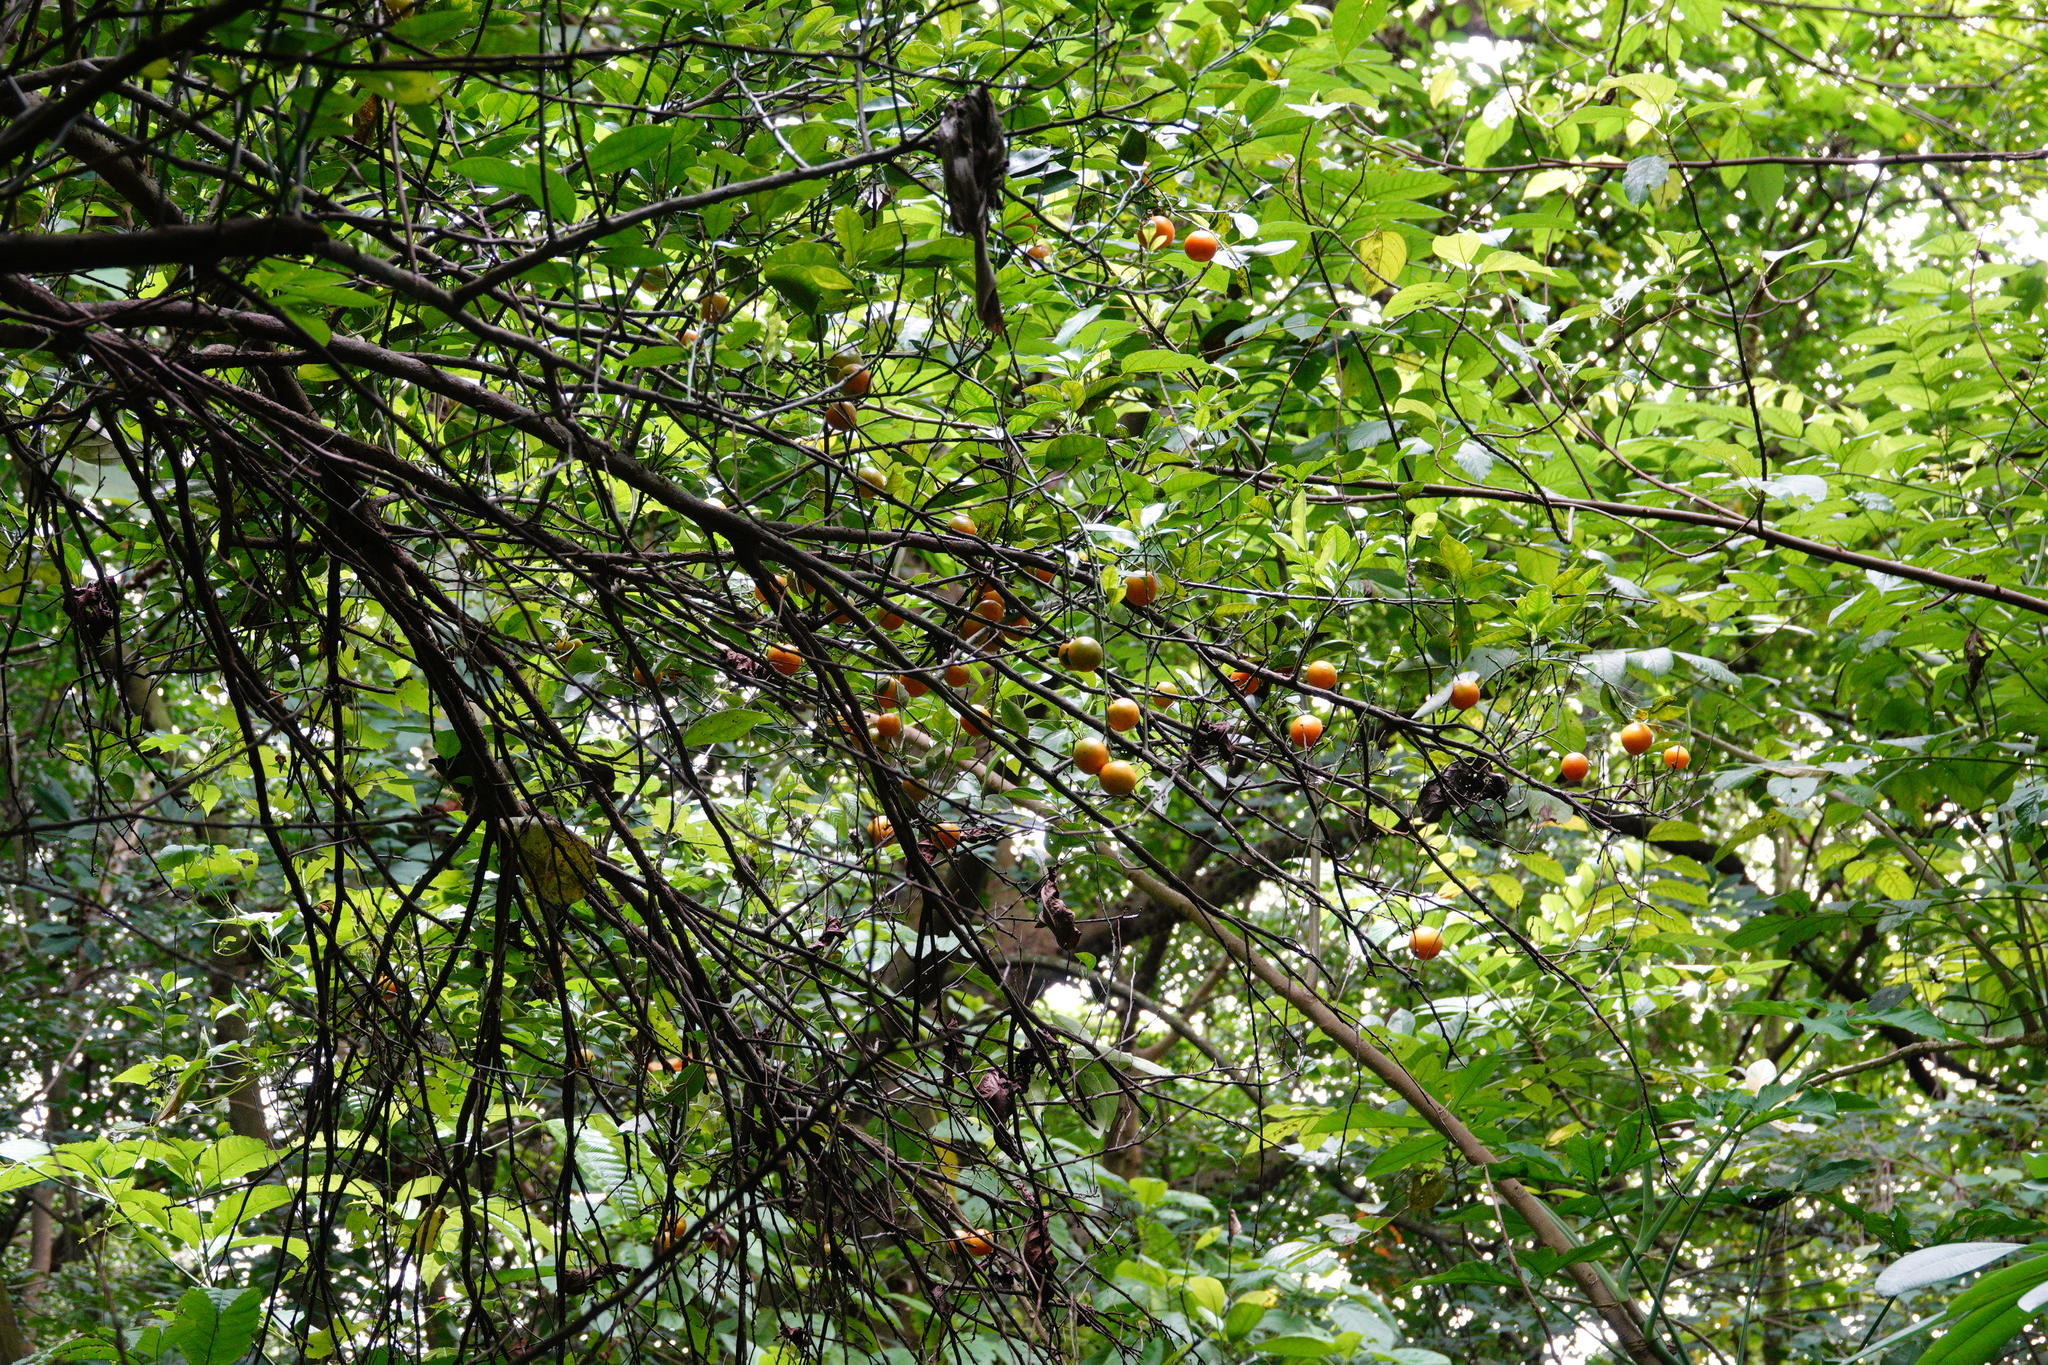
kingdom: Plantae
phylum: Tracheophyta
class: Magnoliopsida
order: Sapindales
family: Rutaceae
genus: Citrus
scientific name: Citrus microcarpa
